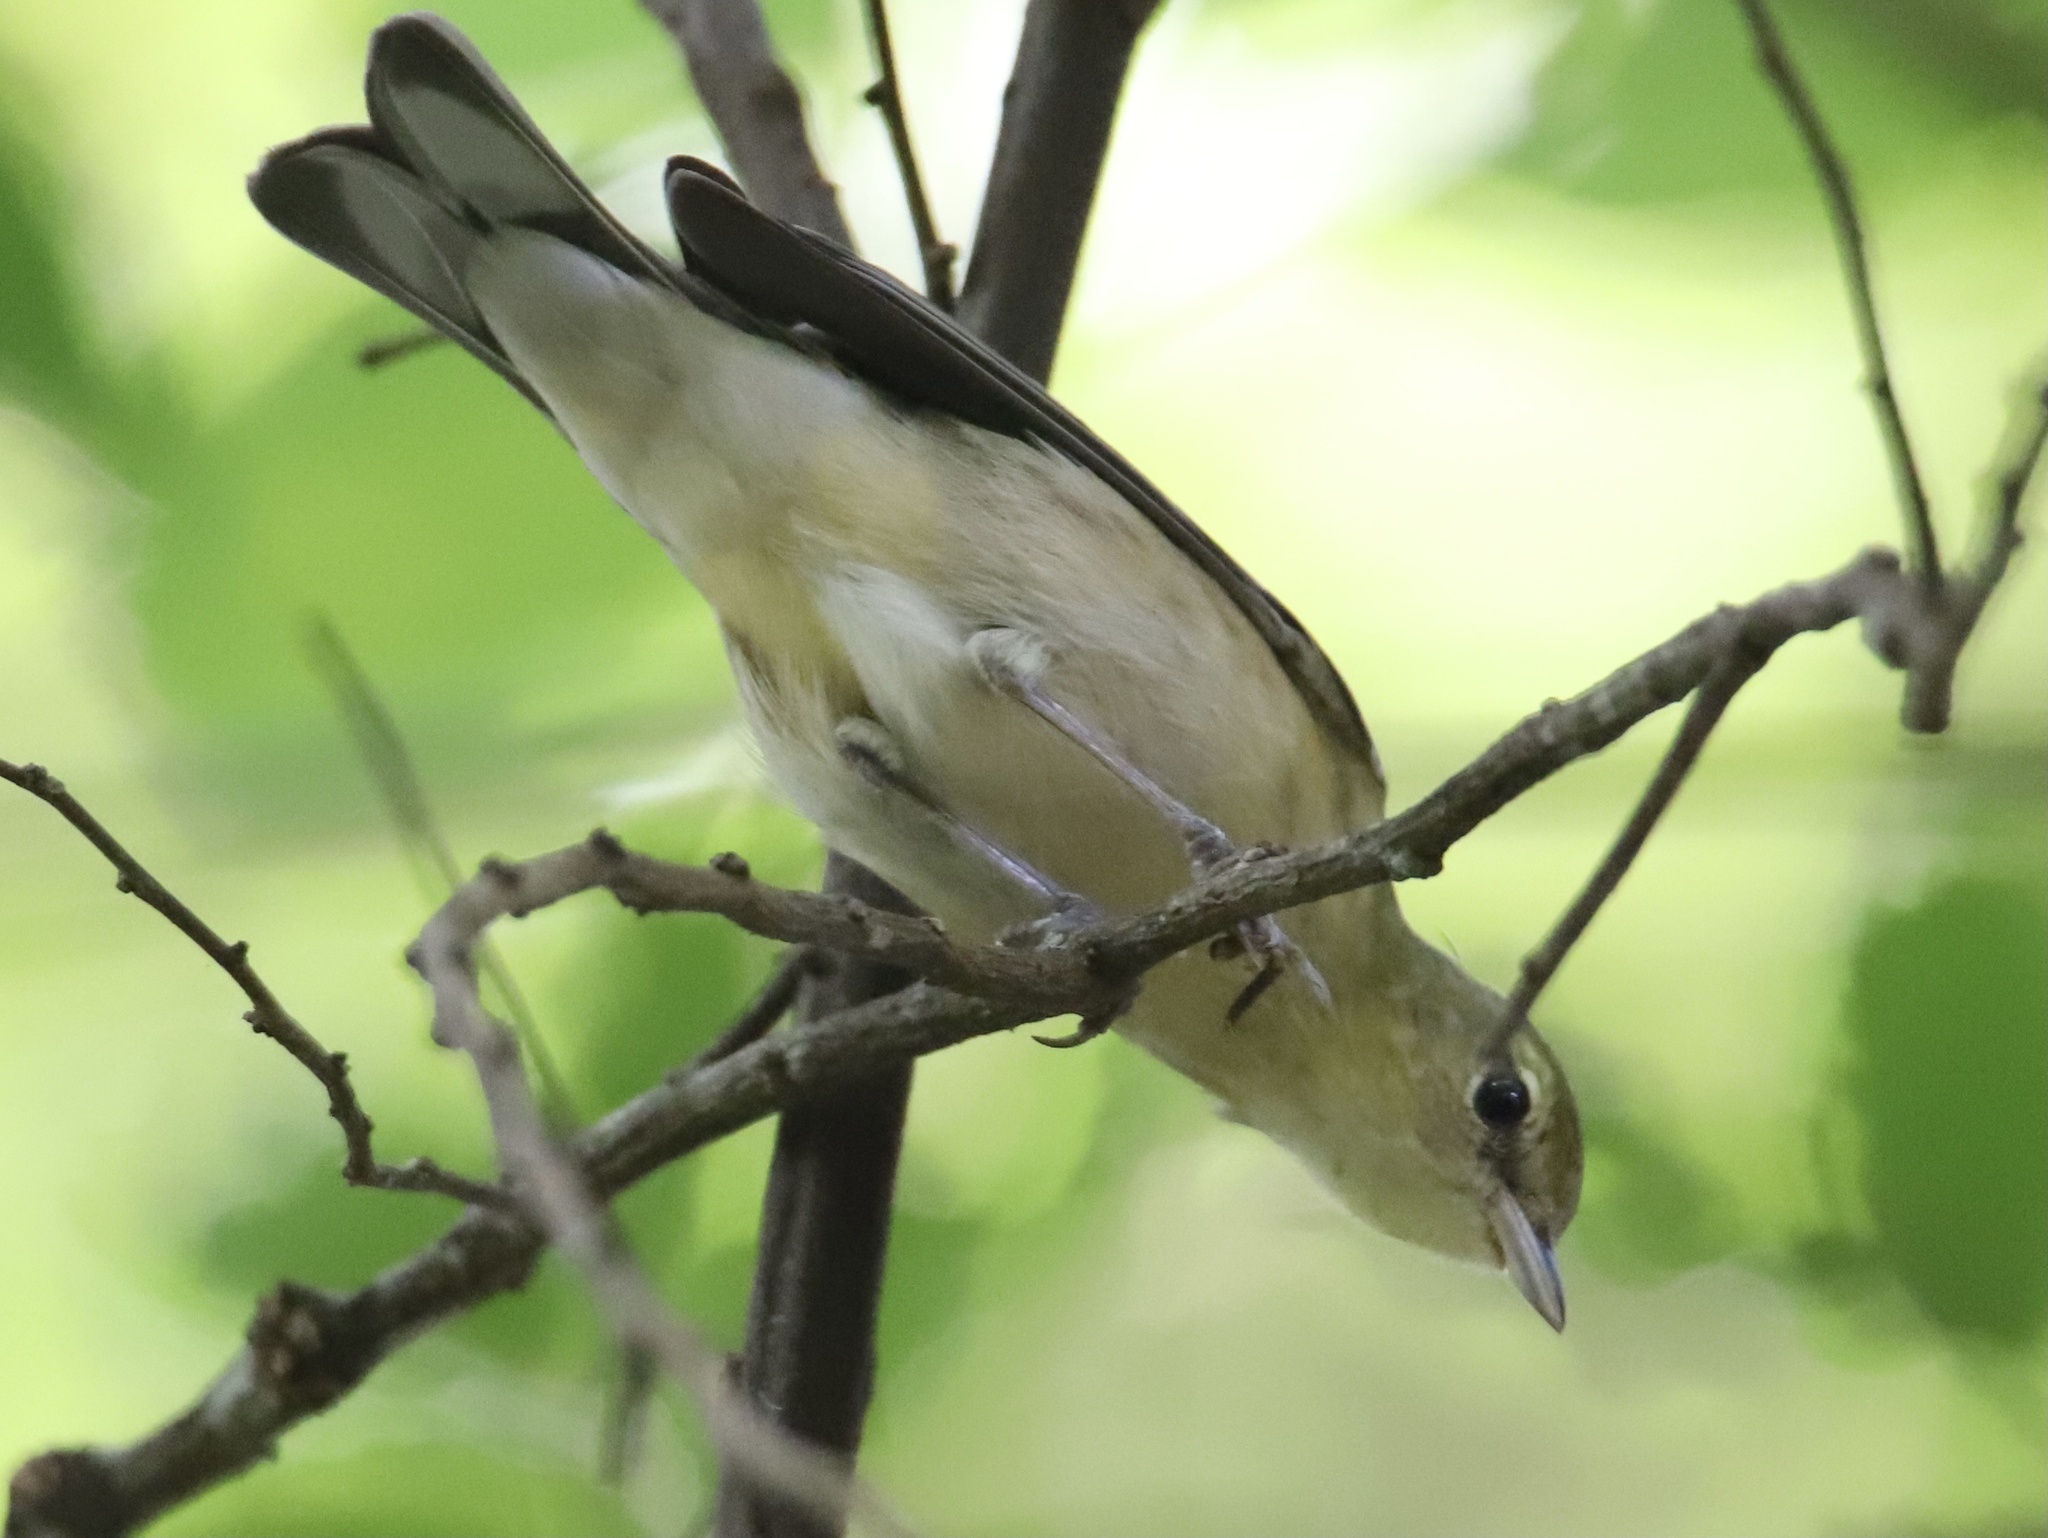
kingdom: Animalia
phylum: Chordata
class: Aves
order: Passeriformes
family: Parulidae
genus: Setophaga
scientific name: Setophaga castanea
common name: Bay-breasted warbler
